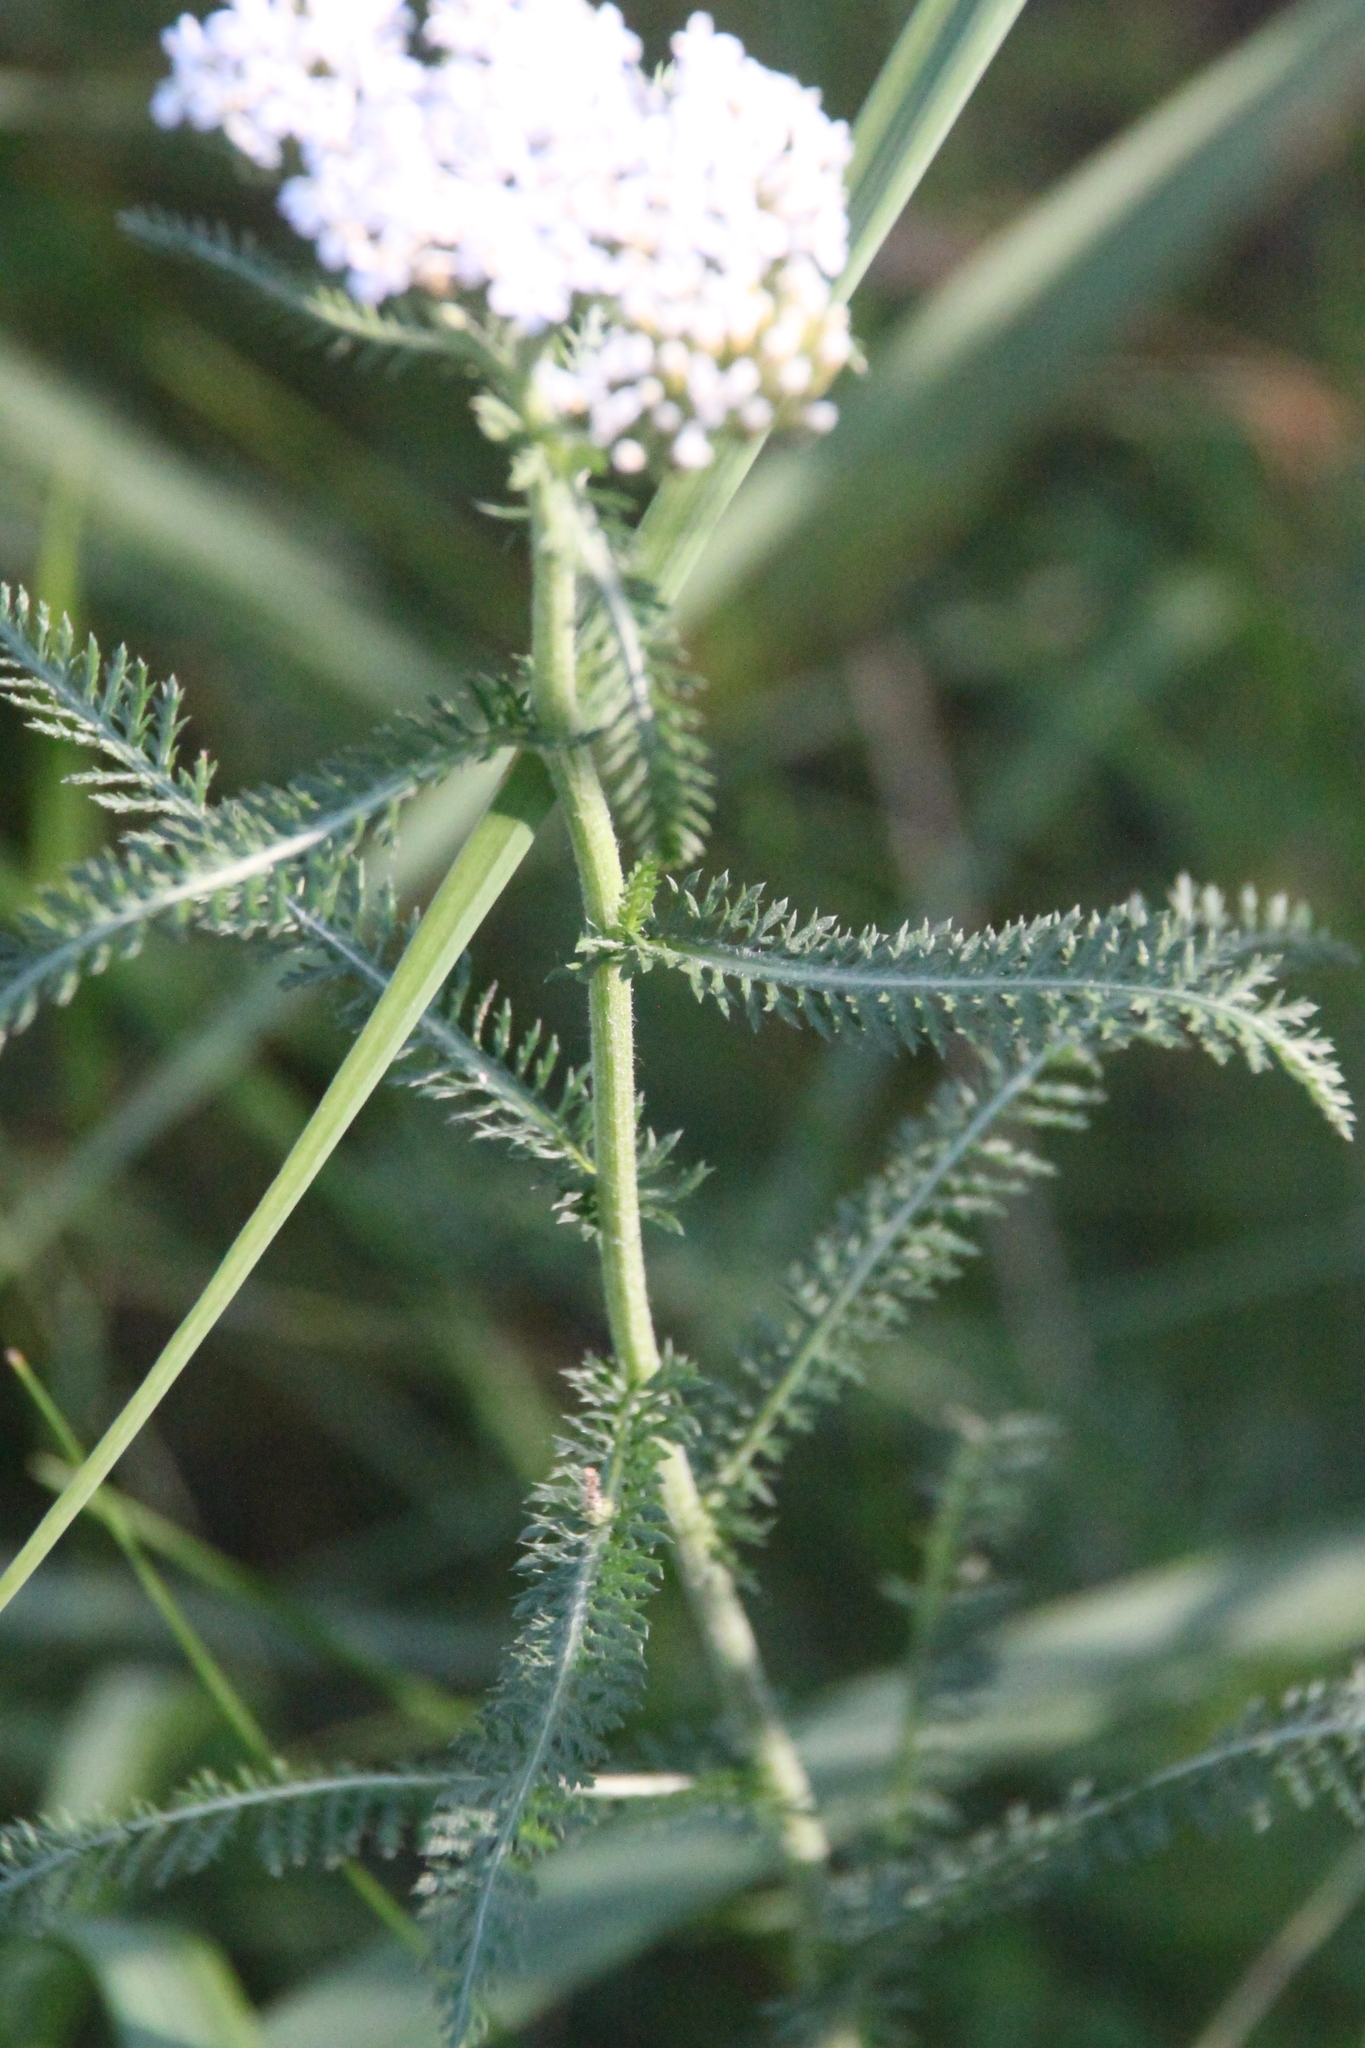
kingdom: Plantae
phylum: Tracheophyta
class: Magnoliopsida
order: Asterales
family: Asteraceae
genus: Achillea
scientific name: Achillea millefolium
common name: Yarrow
